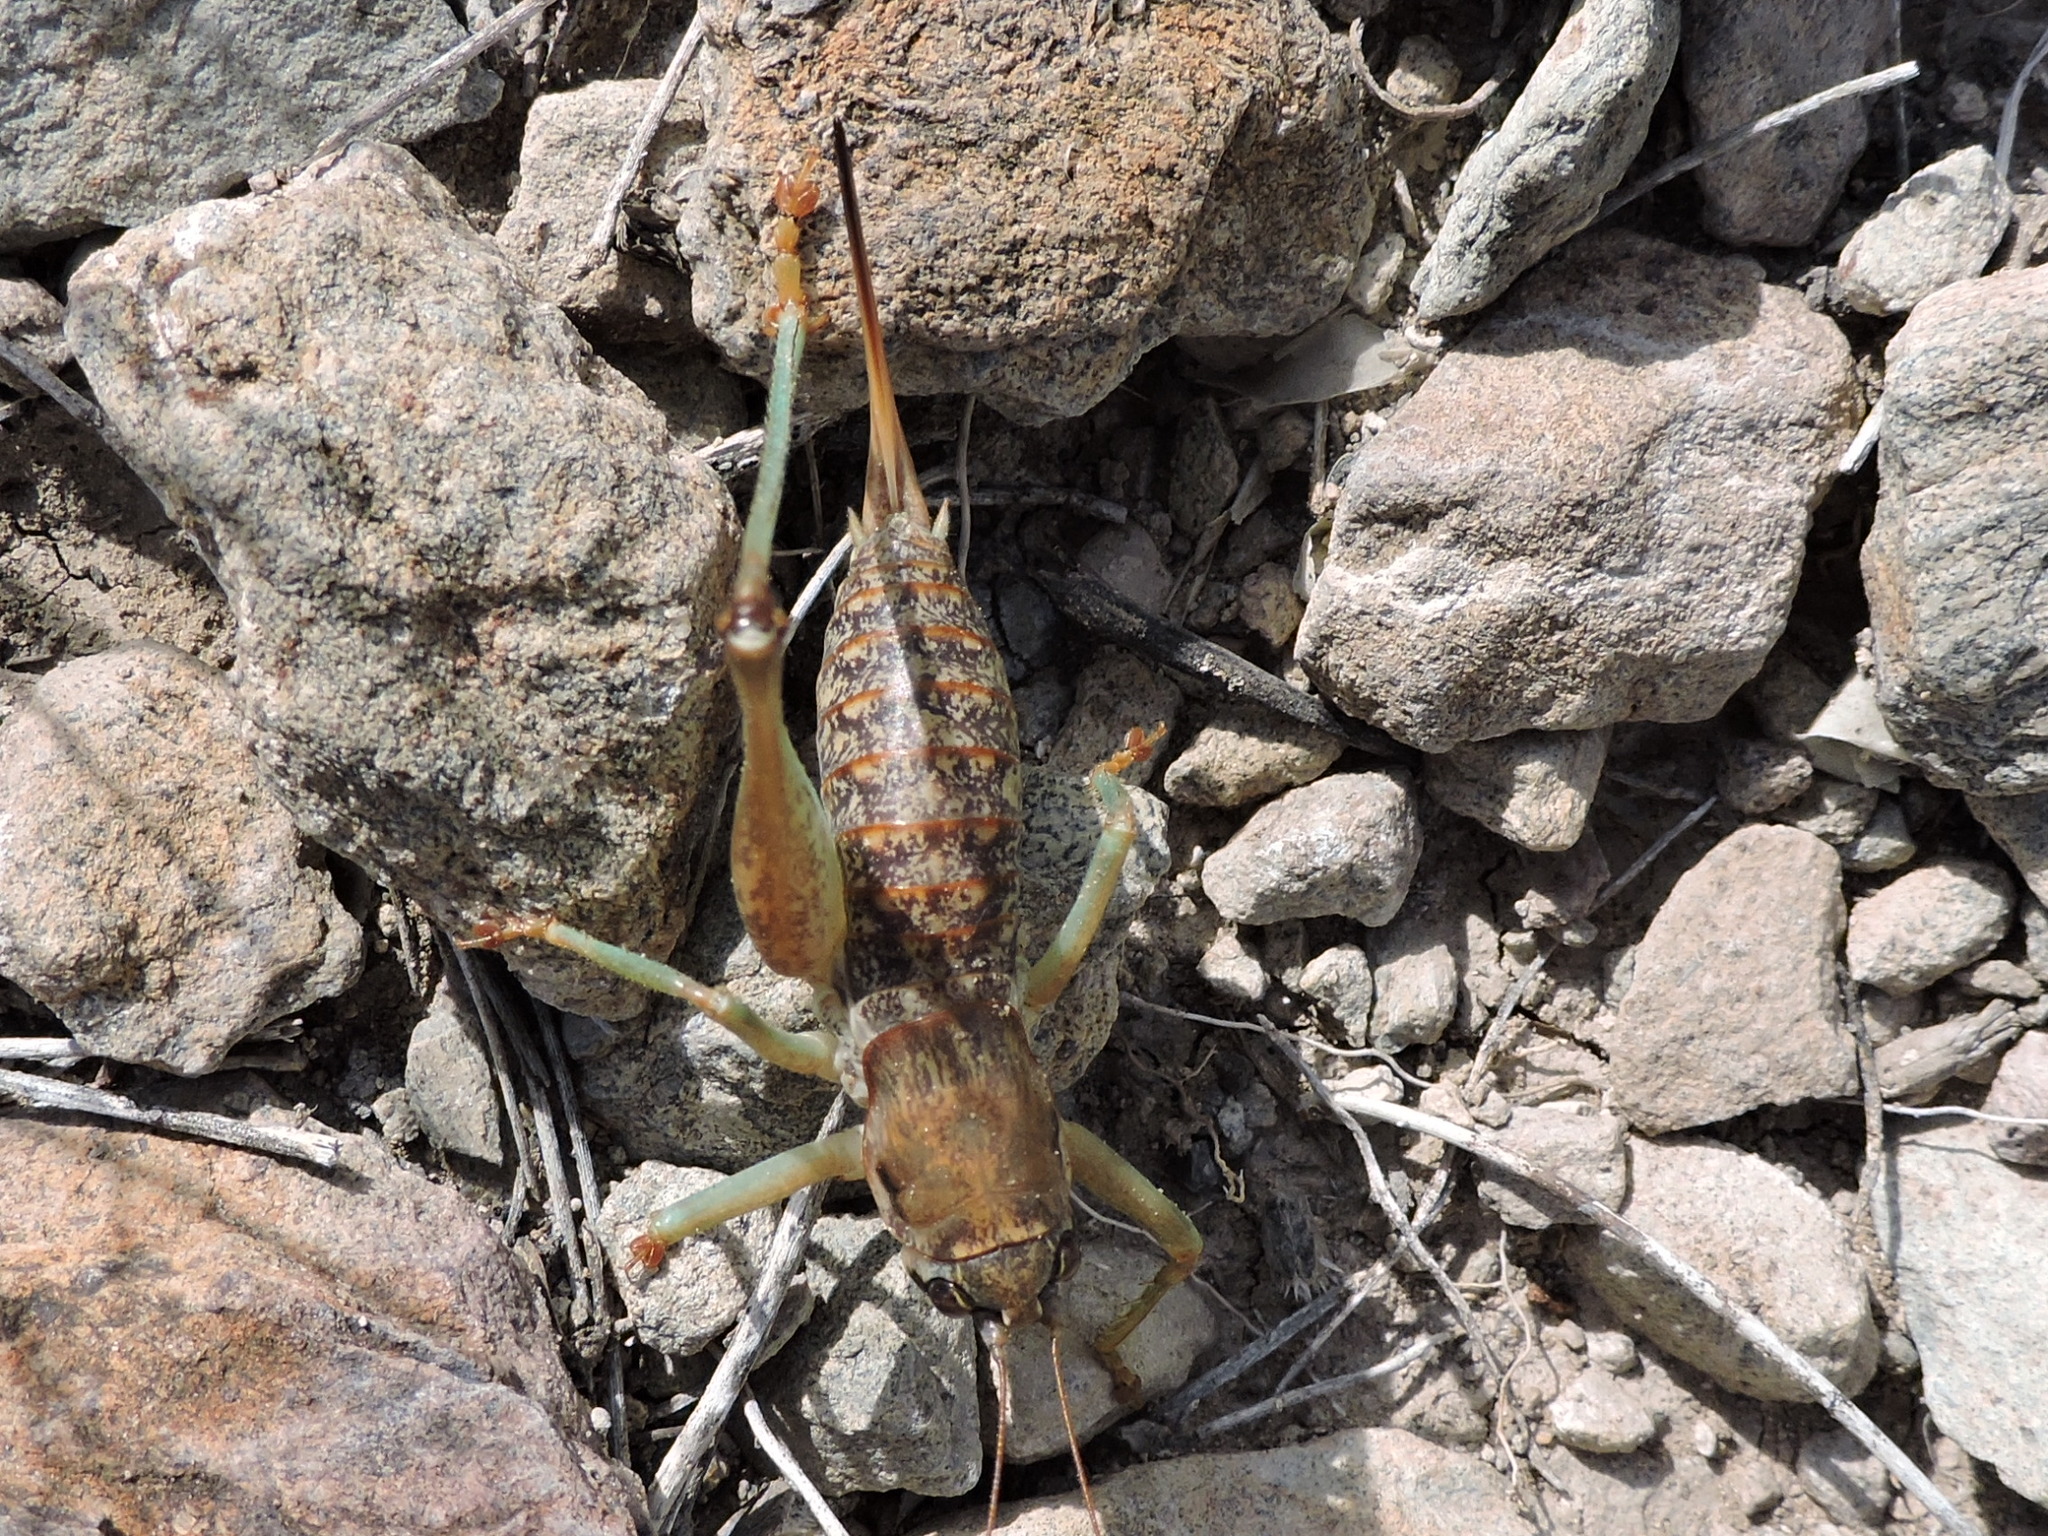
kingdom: Animalia
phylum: Arthropoda
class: Insecta
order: Orthoptera
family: Tettigoniidae
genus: Pediodectes
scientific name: Pediodectes tinkhami
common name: Tinkham's shieldback
